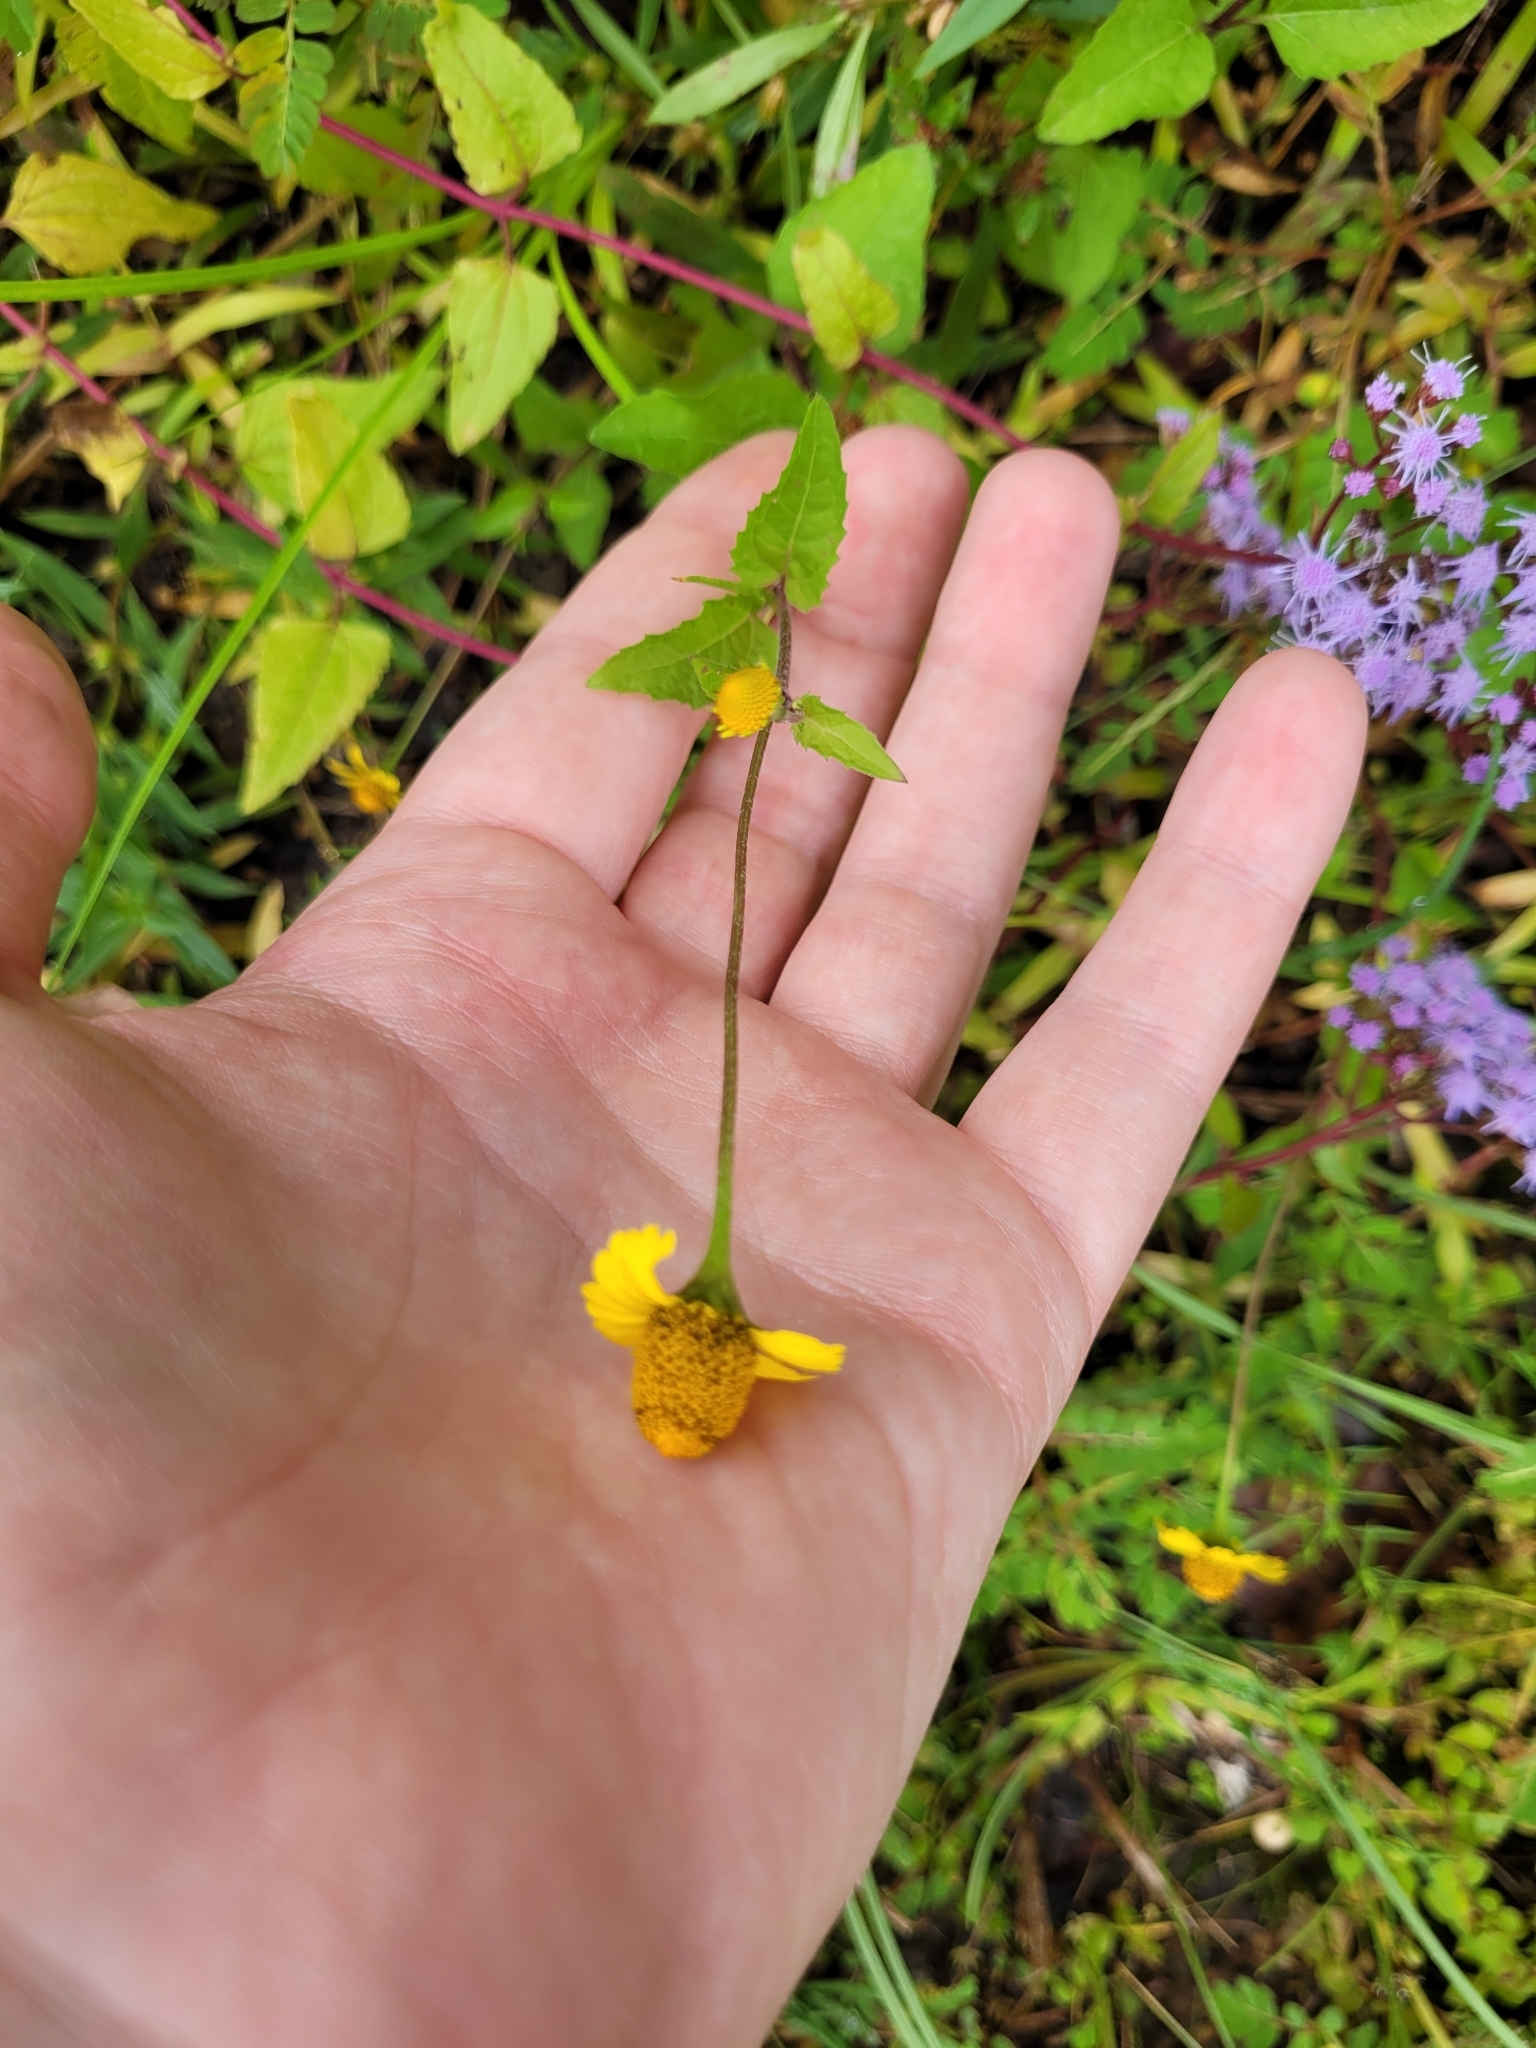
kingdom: Plantae
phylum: Tracheophyta
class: Magnoliopsida
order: Asterales
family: Asteraceae
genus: Acmella
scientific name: Acmella repens
